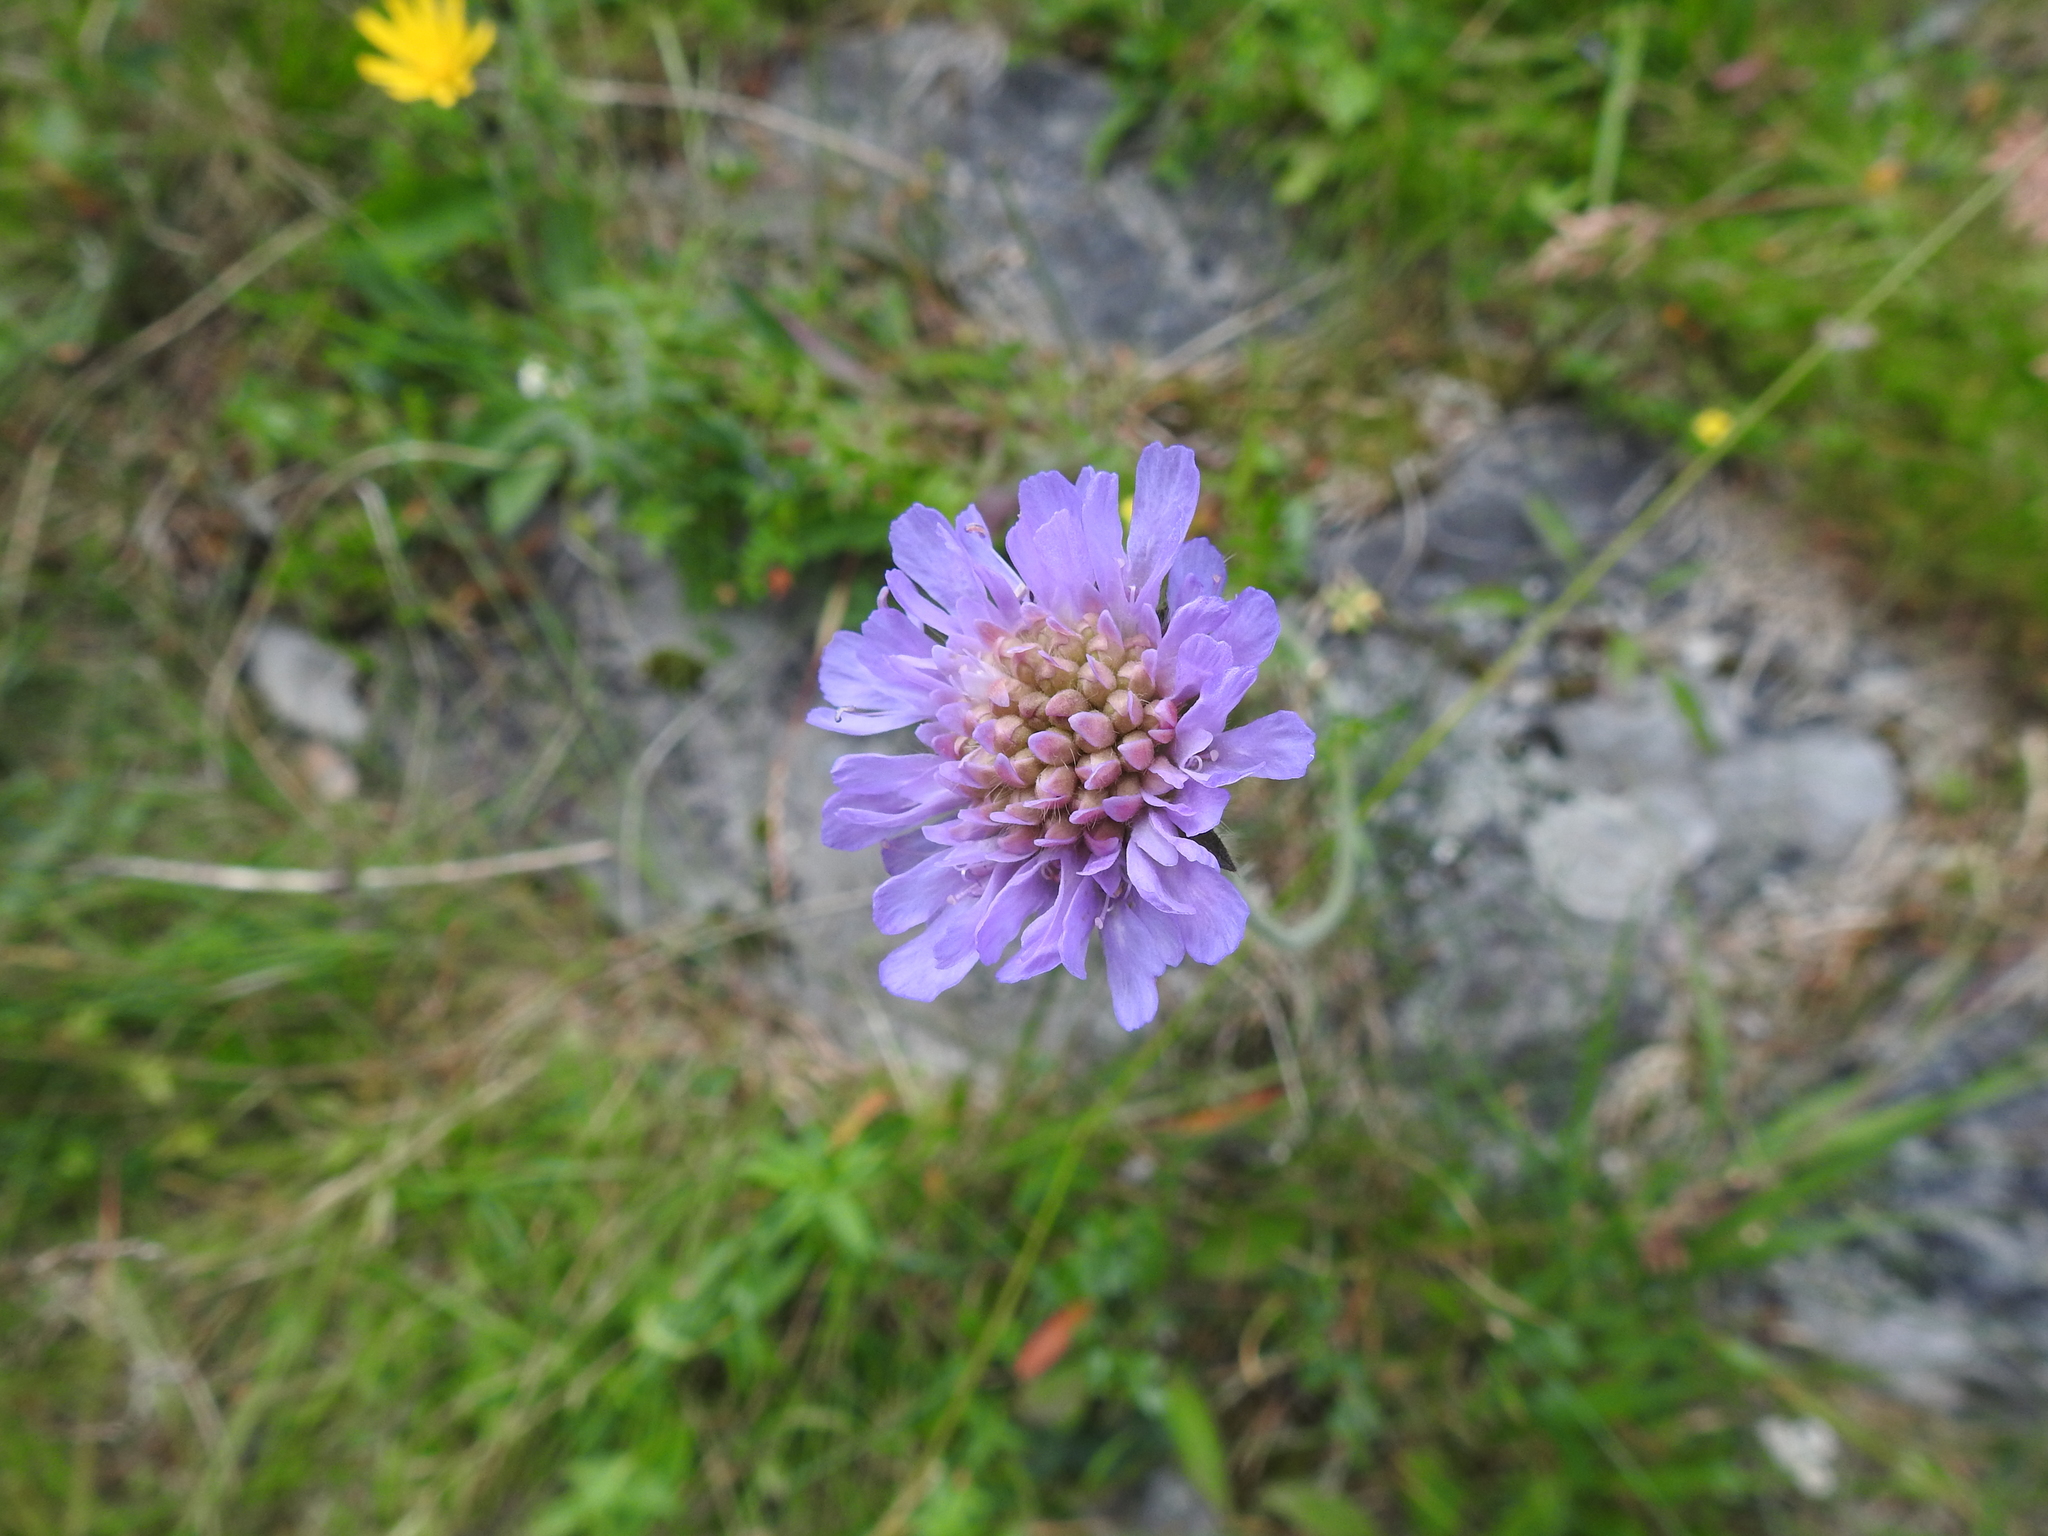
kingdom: Plantae
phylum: Tracheophyta
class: Magnoliopsida
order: Dipsacales
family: Caprifoliaceae
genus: Knautia
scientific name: Knautia arvensis
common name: Field scabiosa
